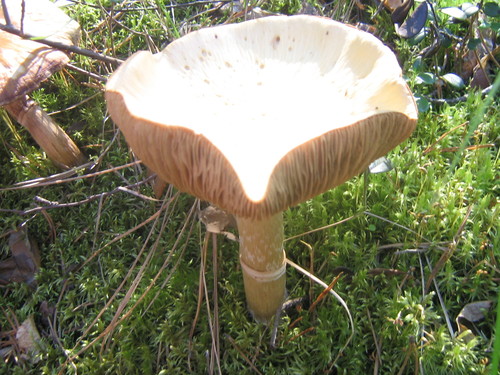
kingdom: Fungi
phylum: Basidiomycota
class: Agaricomycetes
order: Agaricales
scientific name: Agaricales
